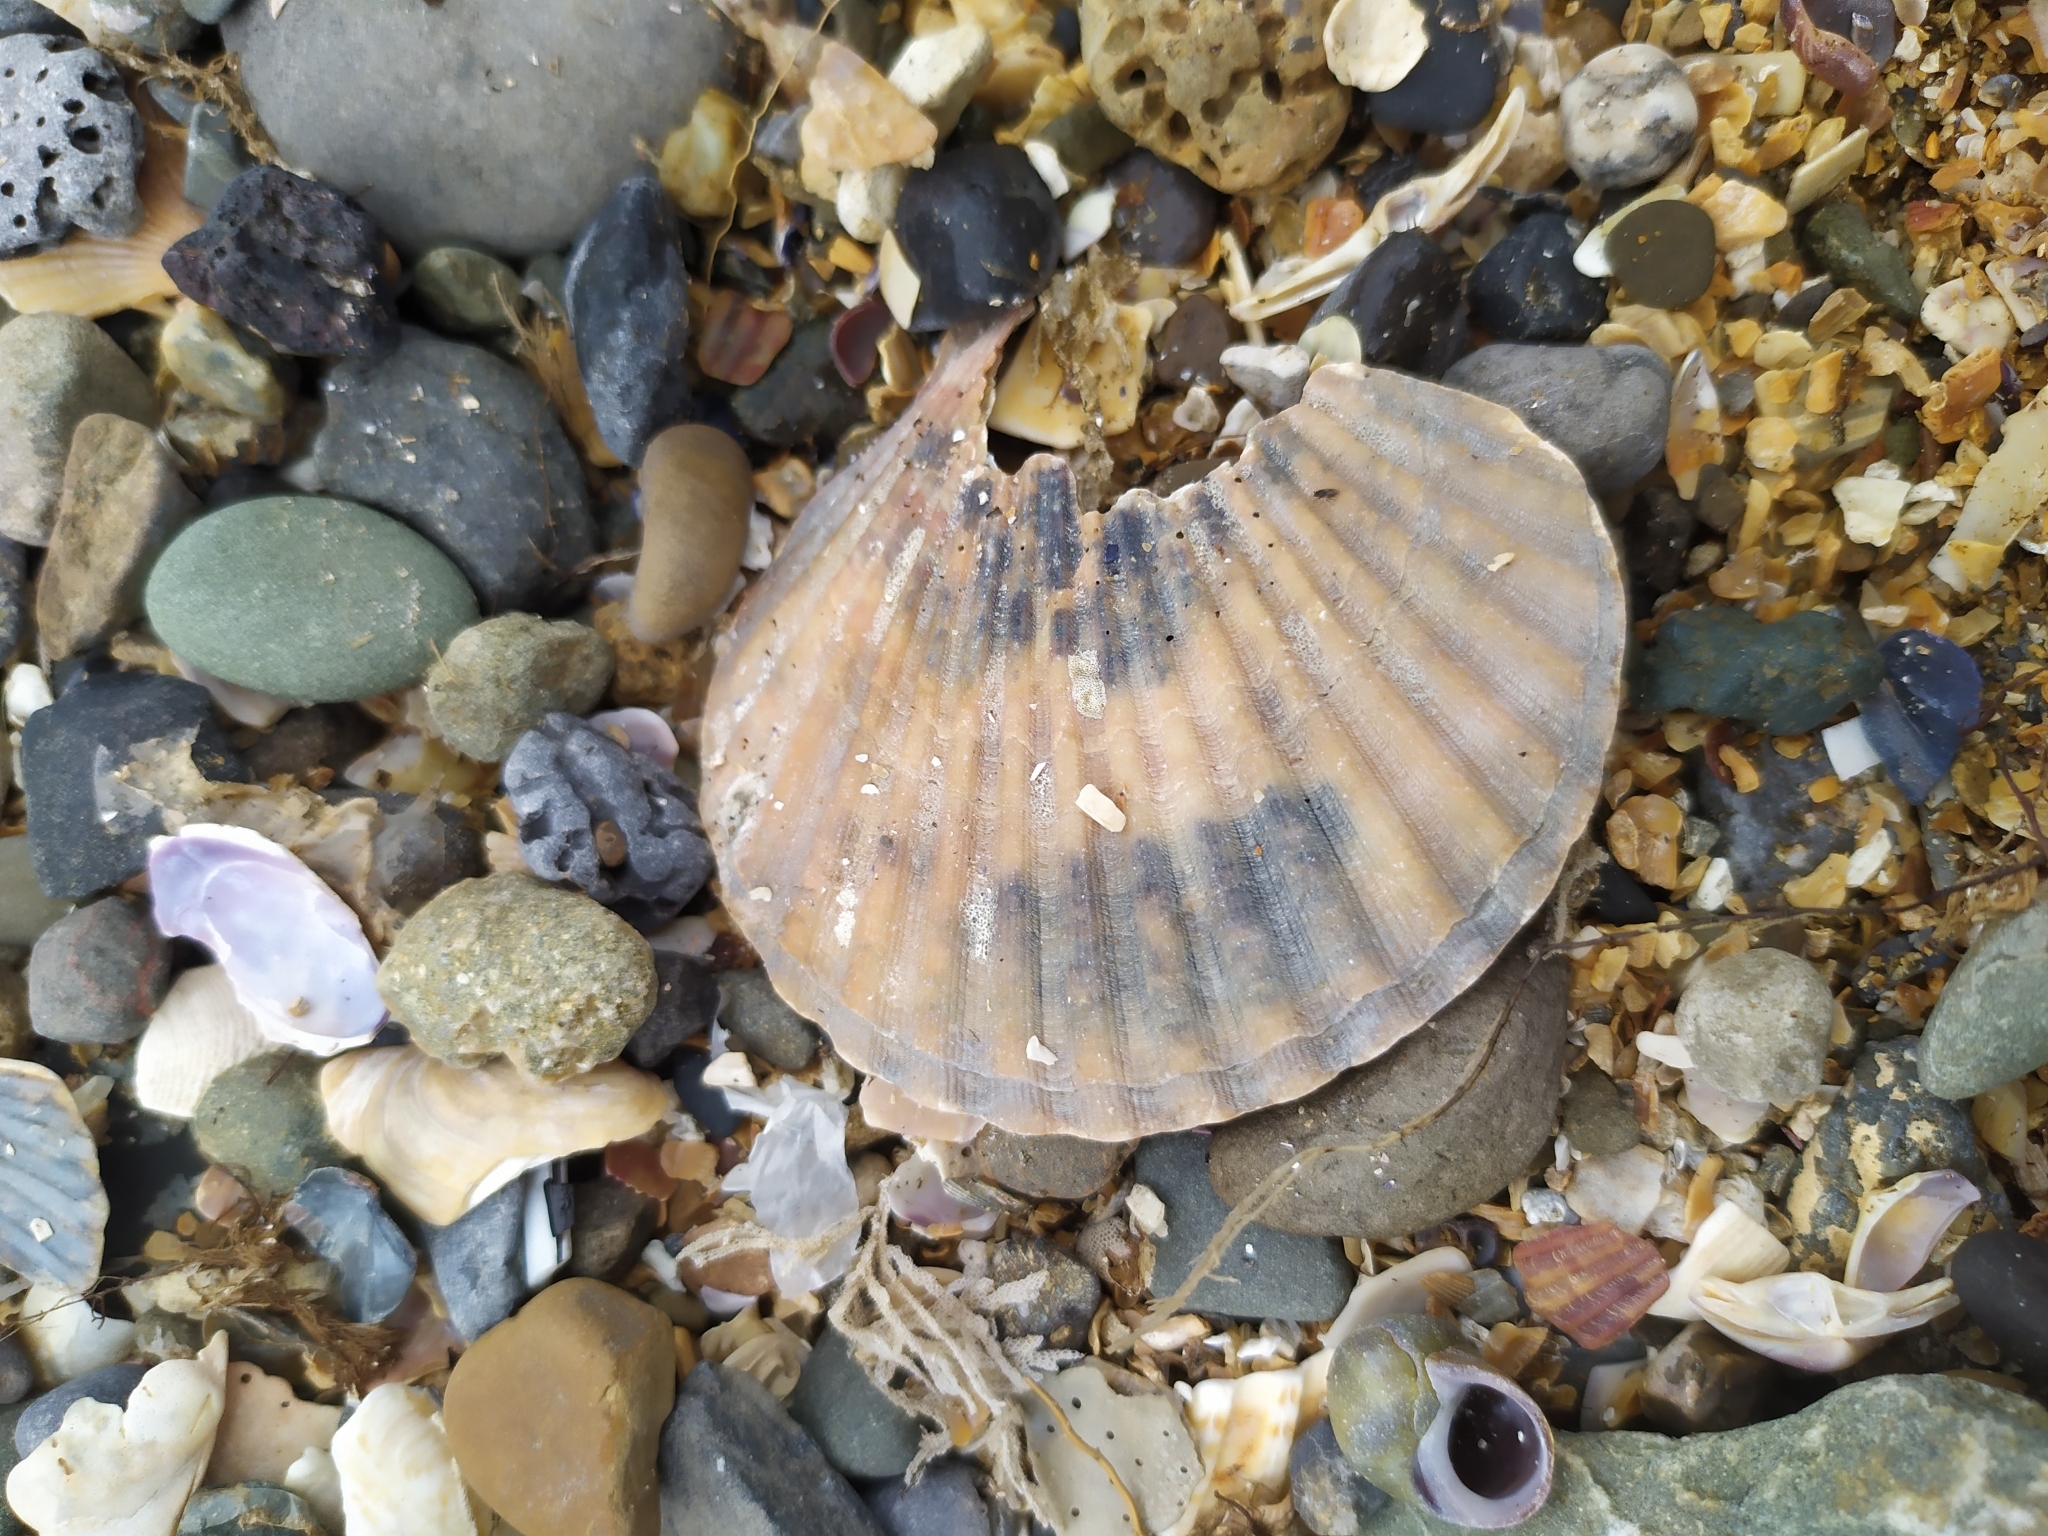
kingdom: Animalia
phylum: Mollusca
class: Bivalvia
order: Pectinida
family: Pectinidae
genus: Aequipecten
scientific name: Aequipecten opercularis
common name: Queen scallop
